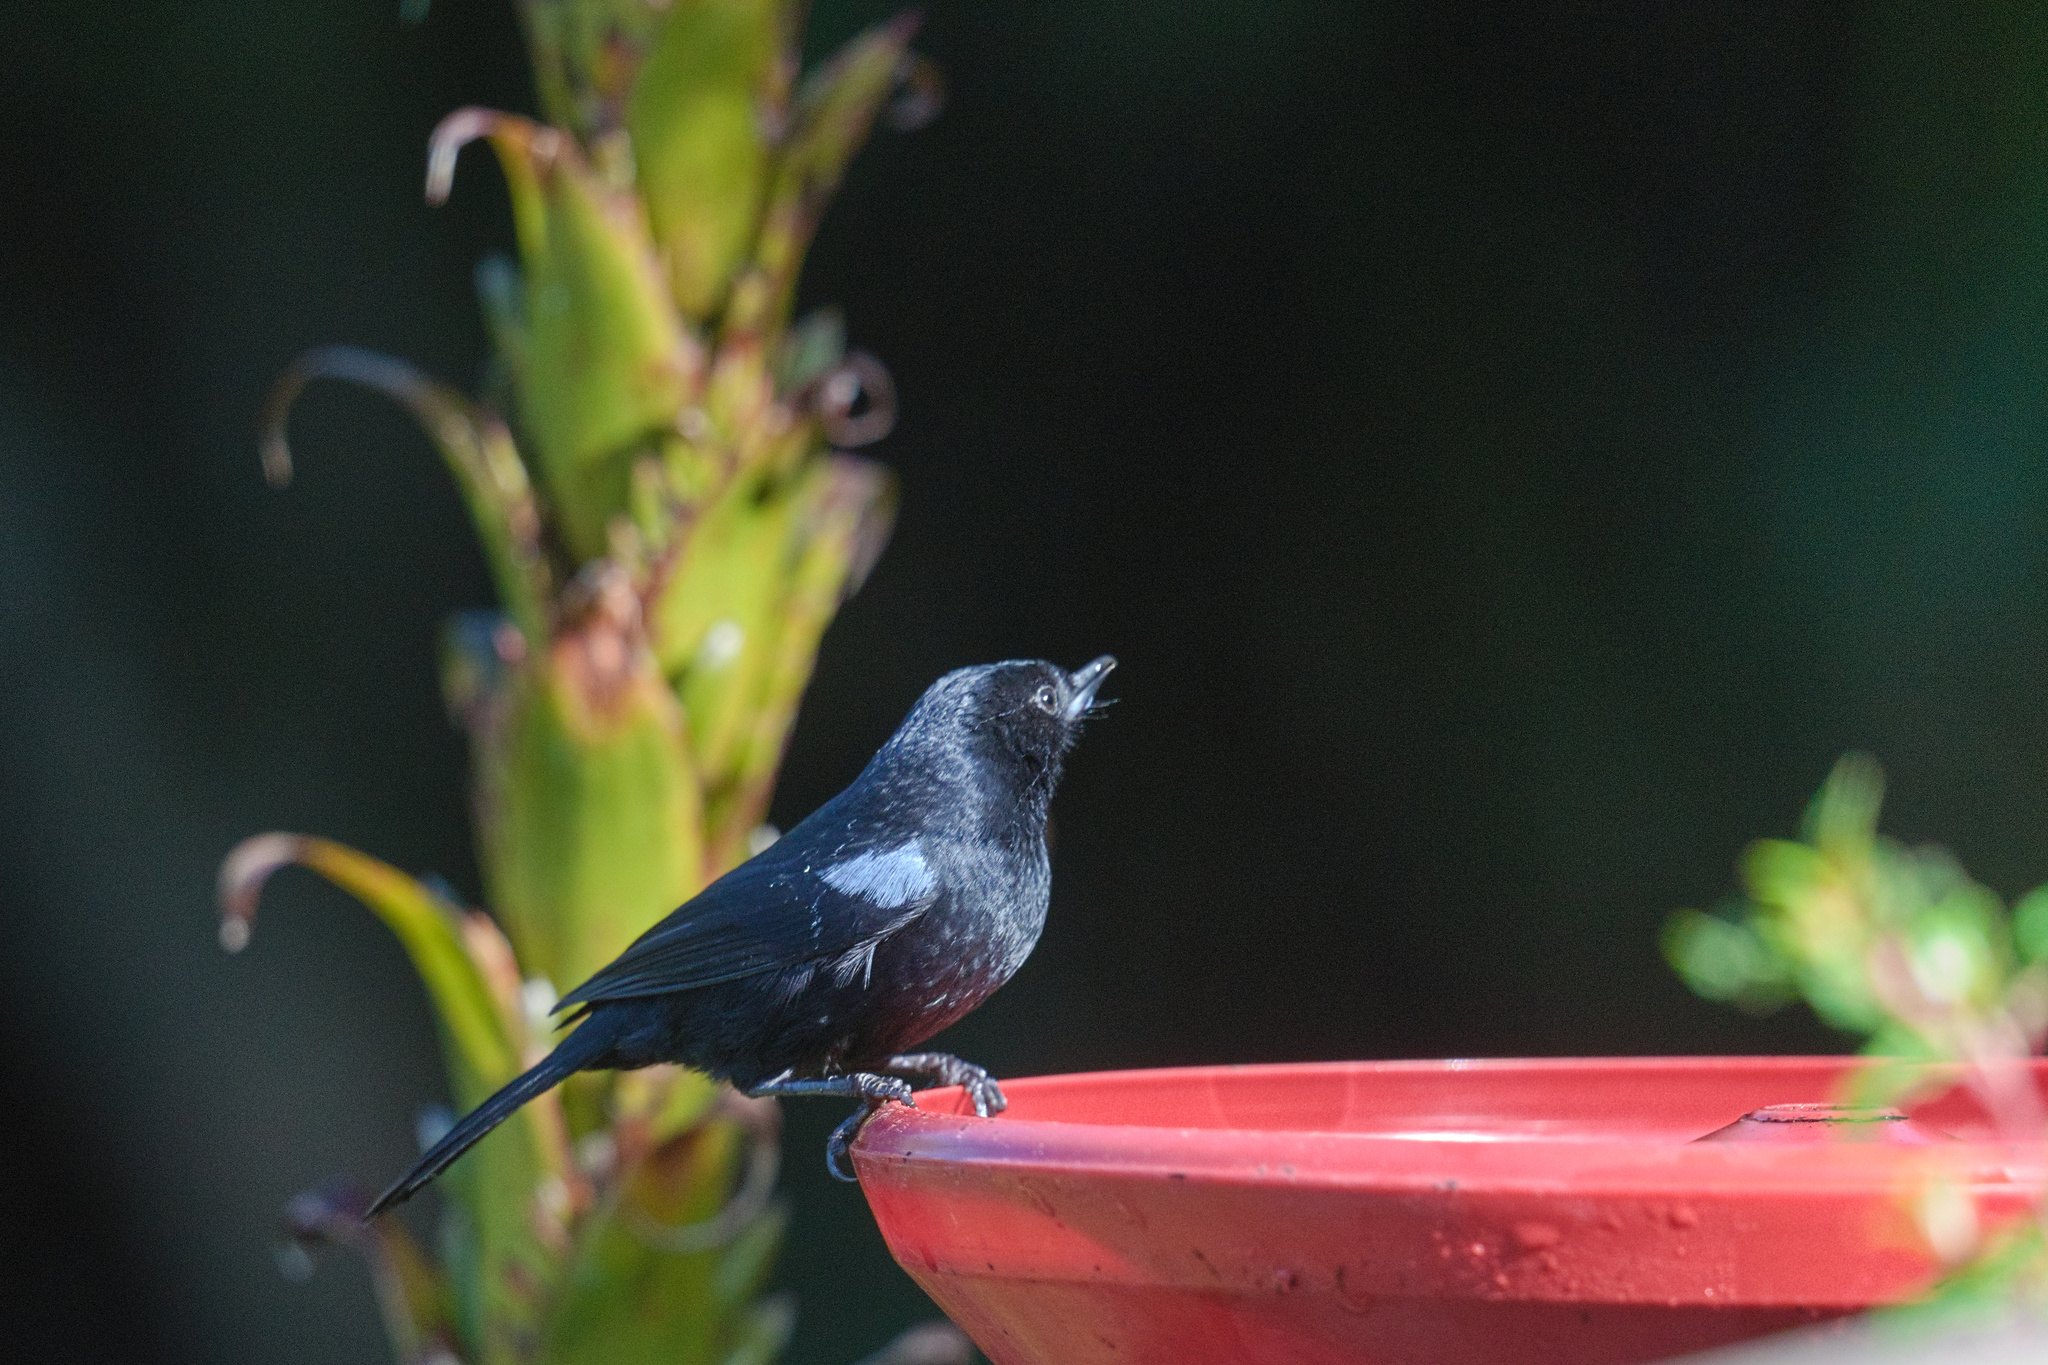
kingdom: Animalia
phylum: Chordata
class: Aves
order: Passeriformes
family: Thraupidae
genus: Diglossa
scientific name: Diglossa lafresnayii
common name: Glossy flowerpiercer
